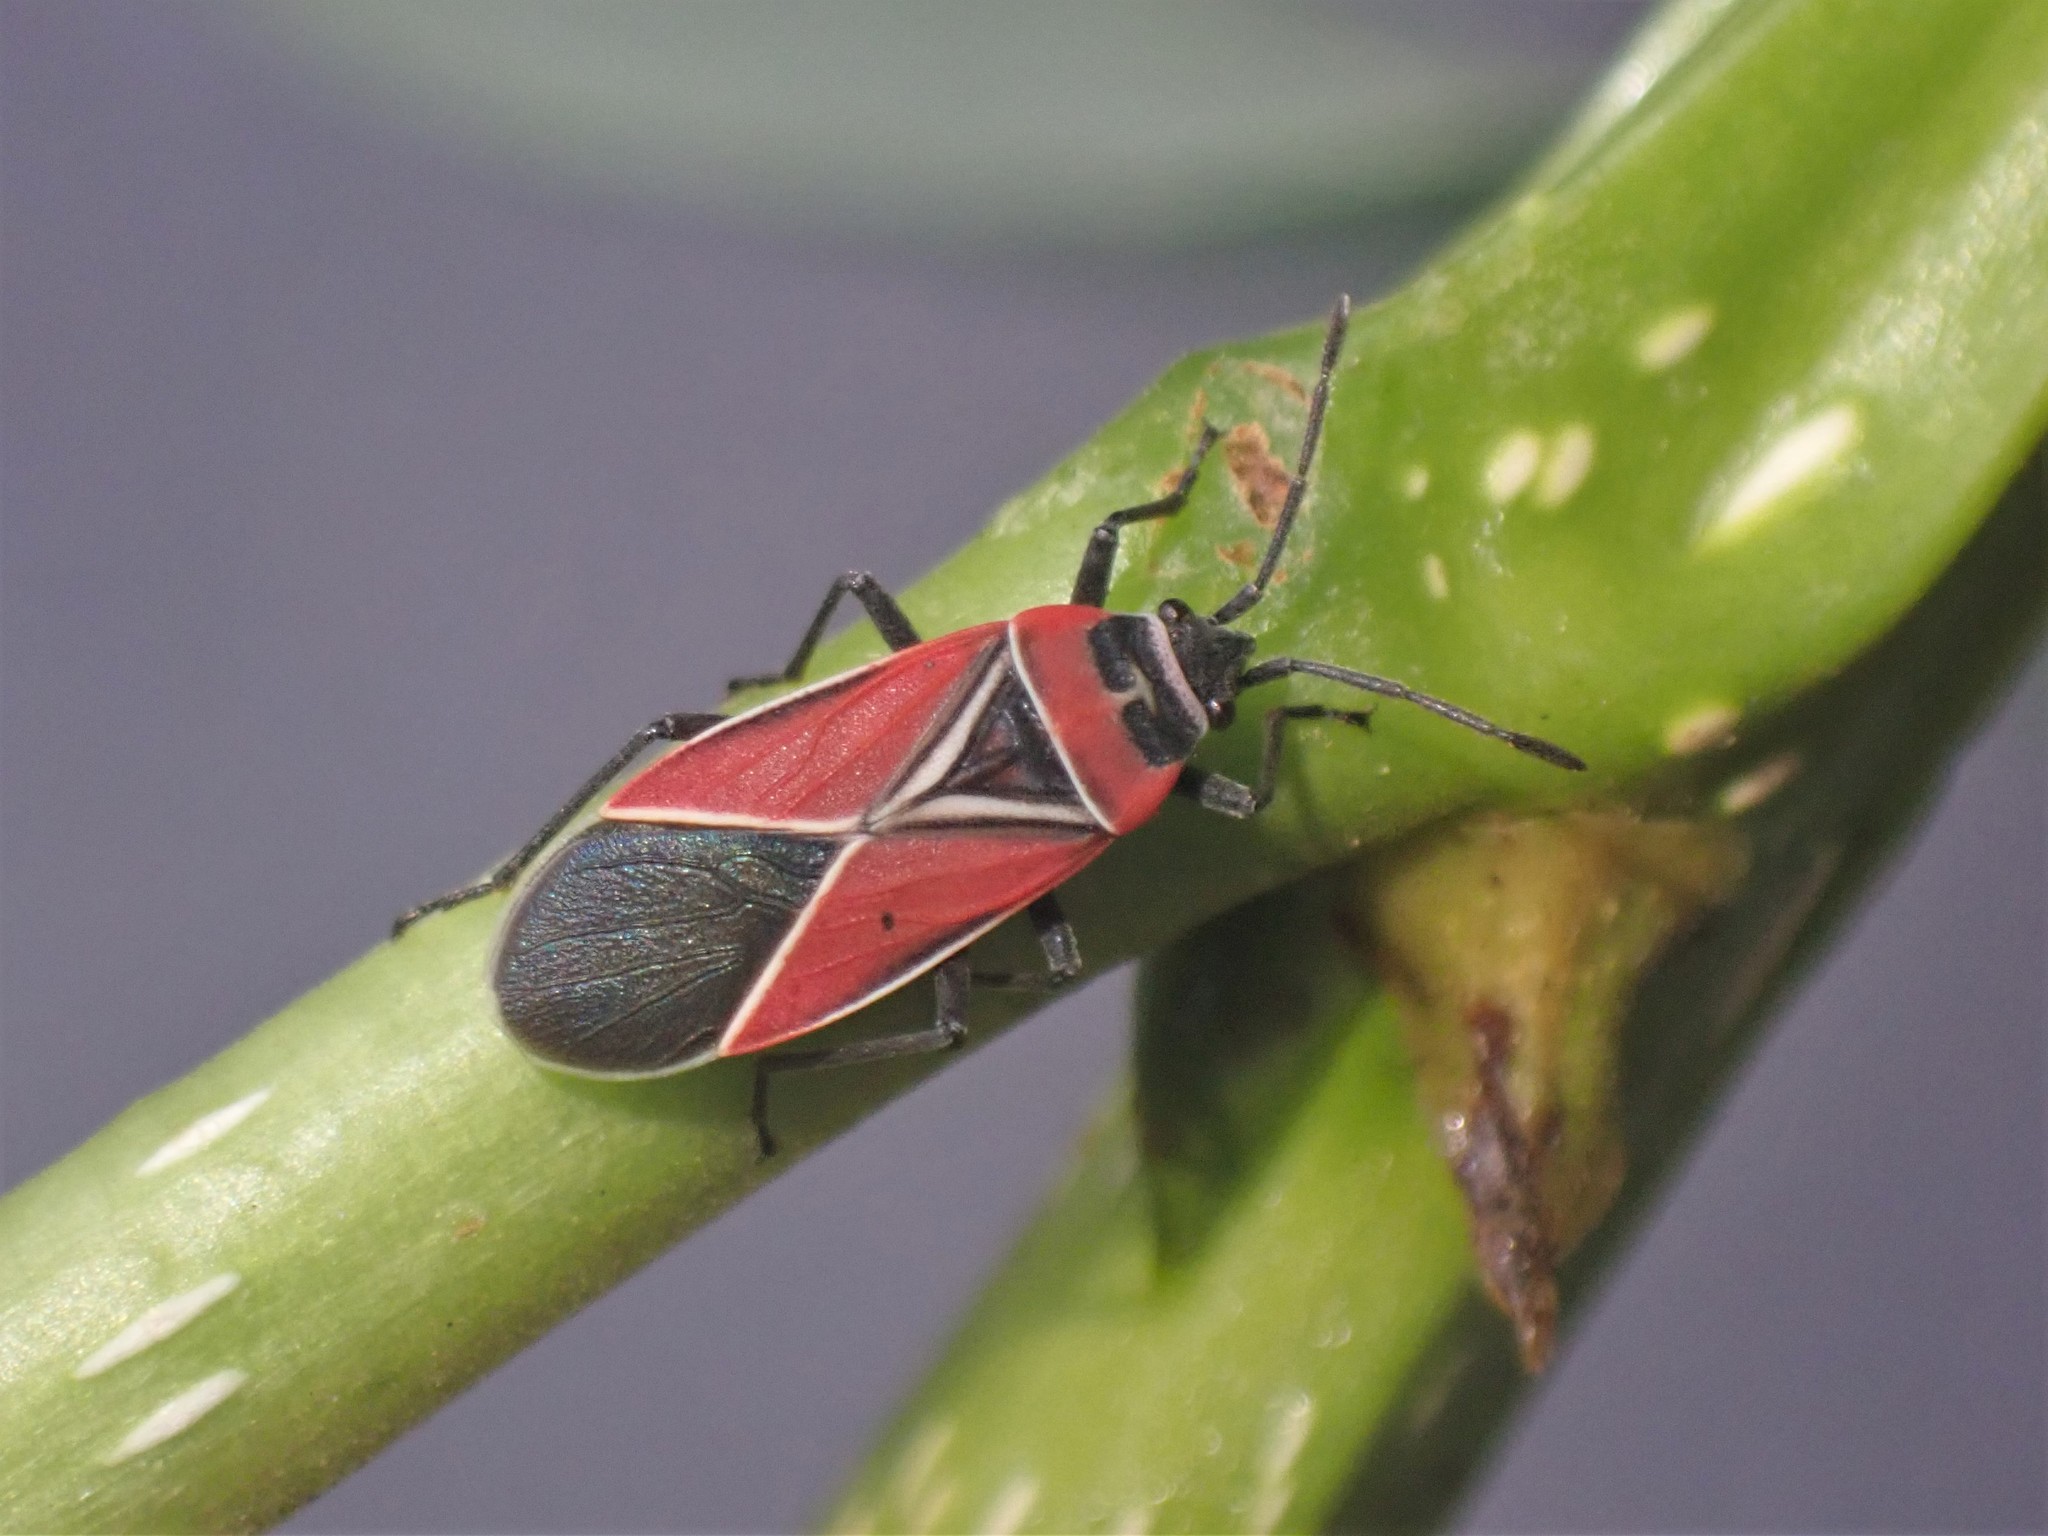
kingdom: Animalia
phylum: Arthropoda
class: Insecta
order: Hemiptera
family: Lygaeidae
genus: Neacoryphus
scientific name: Neacoryphus bicrucis
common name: Lygaeid bug
